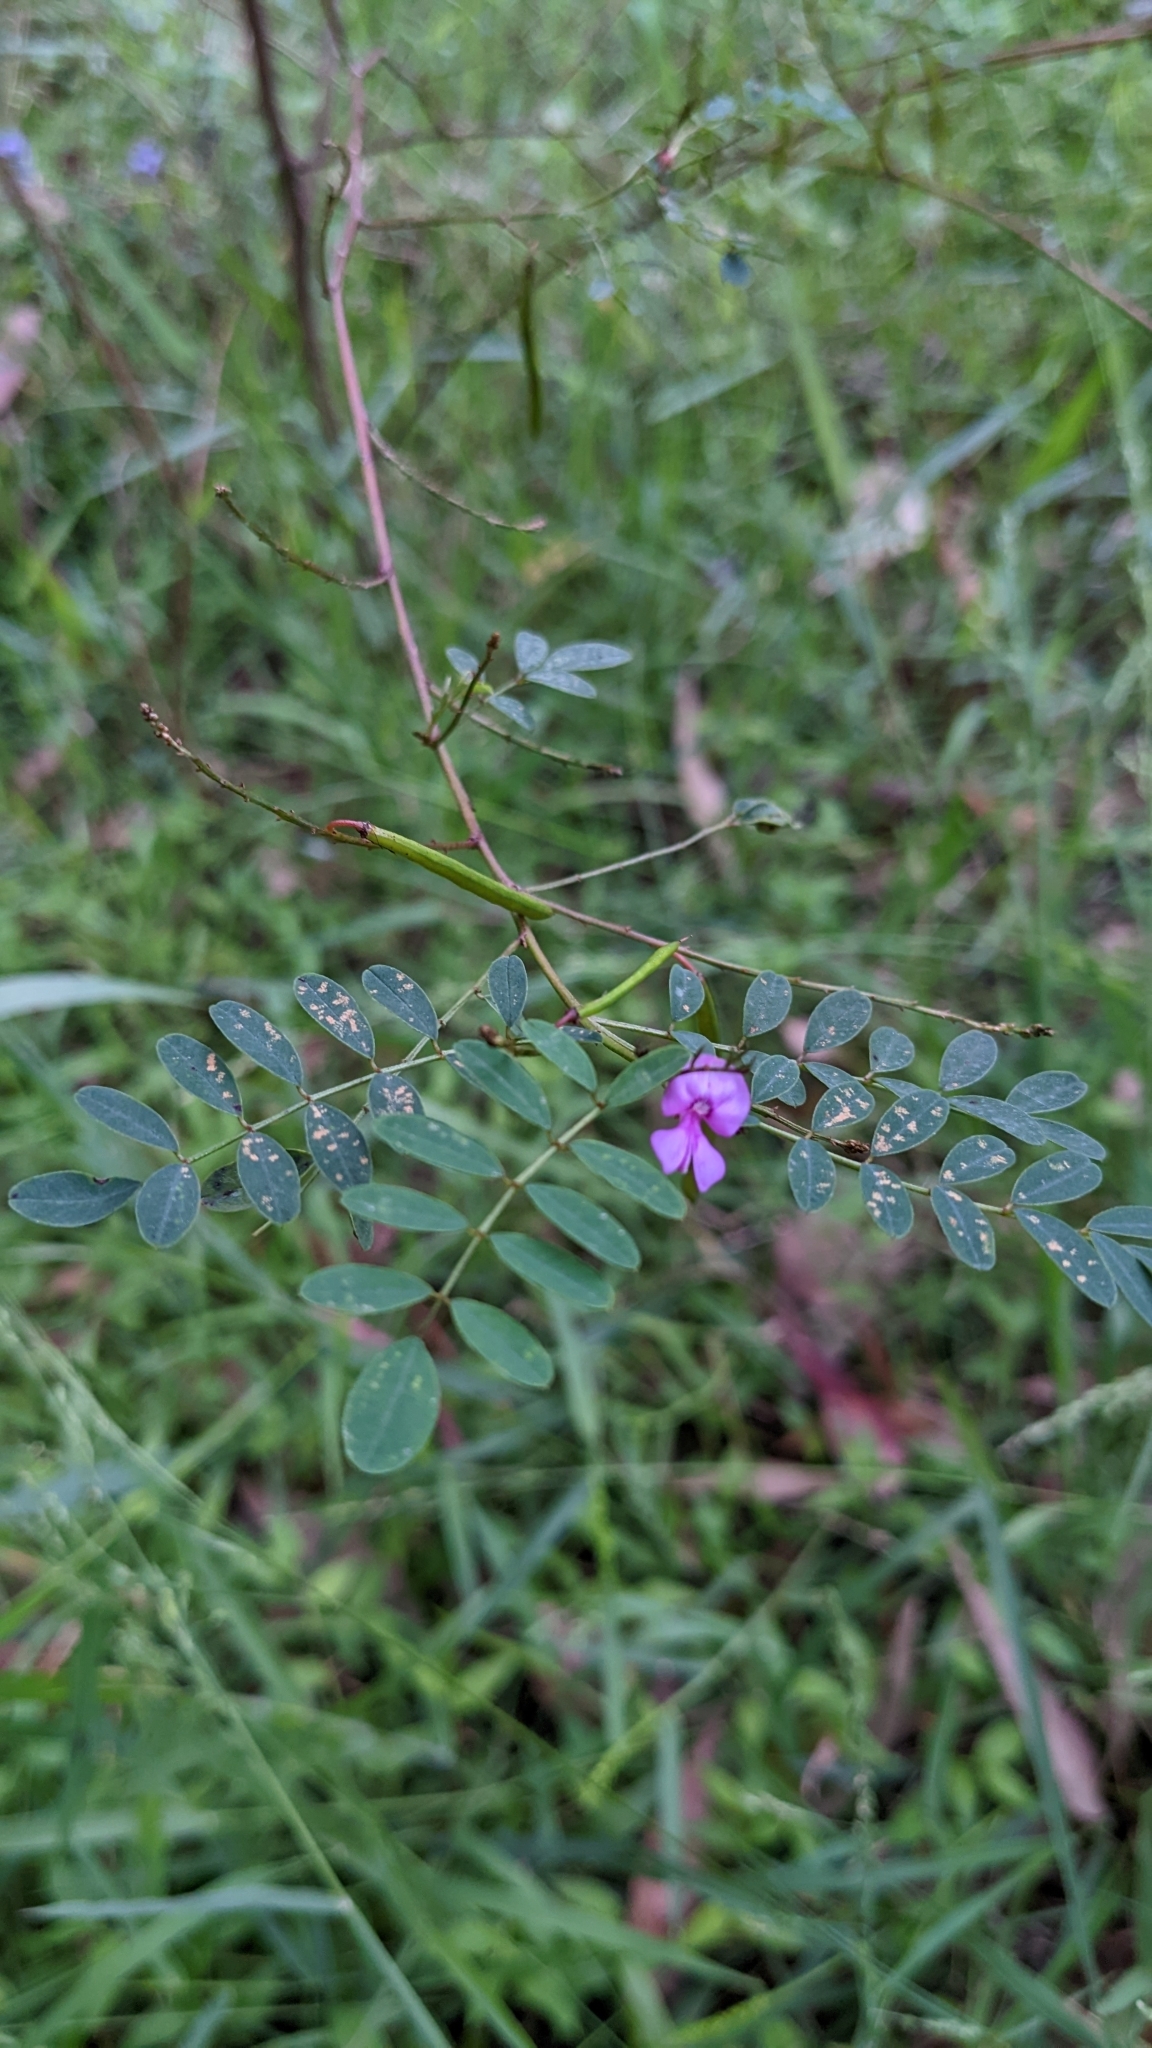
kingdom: Plantae
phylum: Tracheophyta
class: Magnoliopsida
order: Fabales
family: Fabaceae
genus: Indigofera
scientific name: Indigofera australis
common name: Australian indigo
